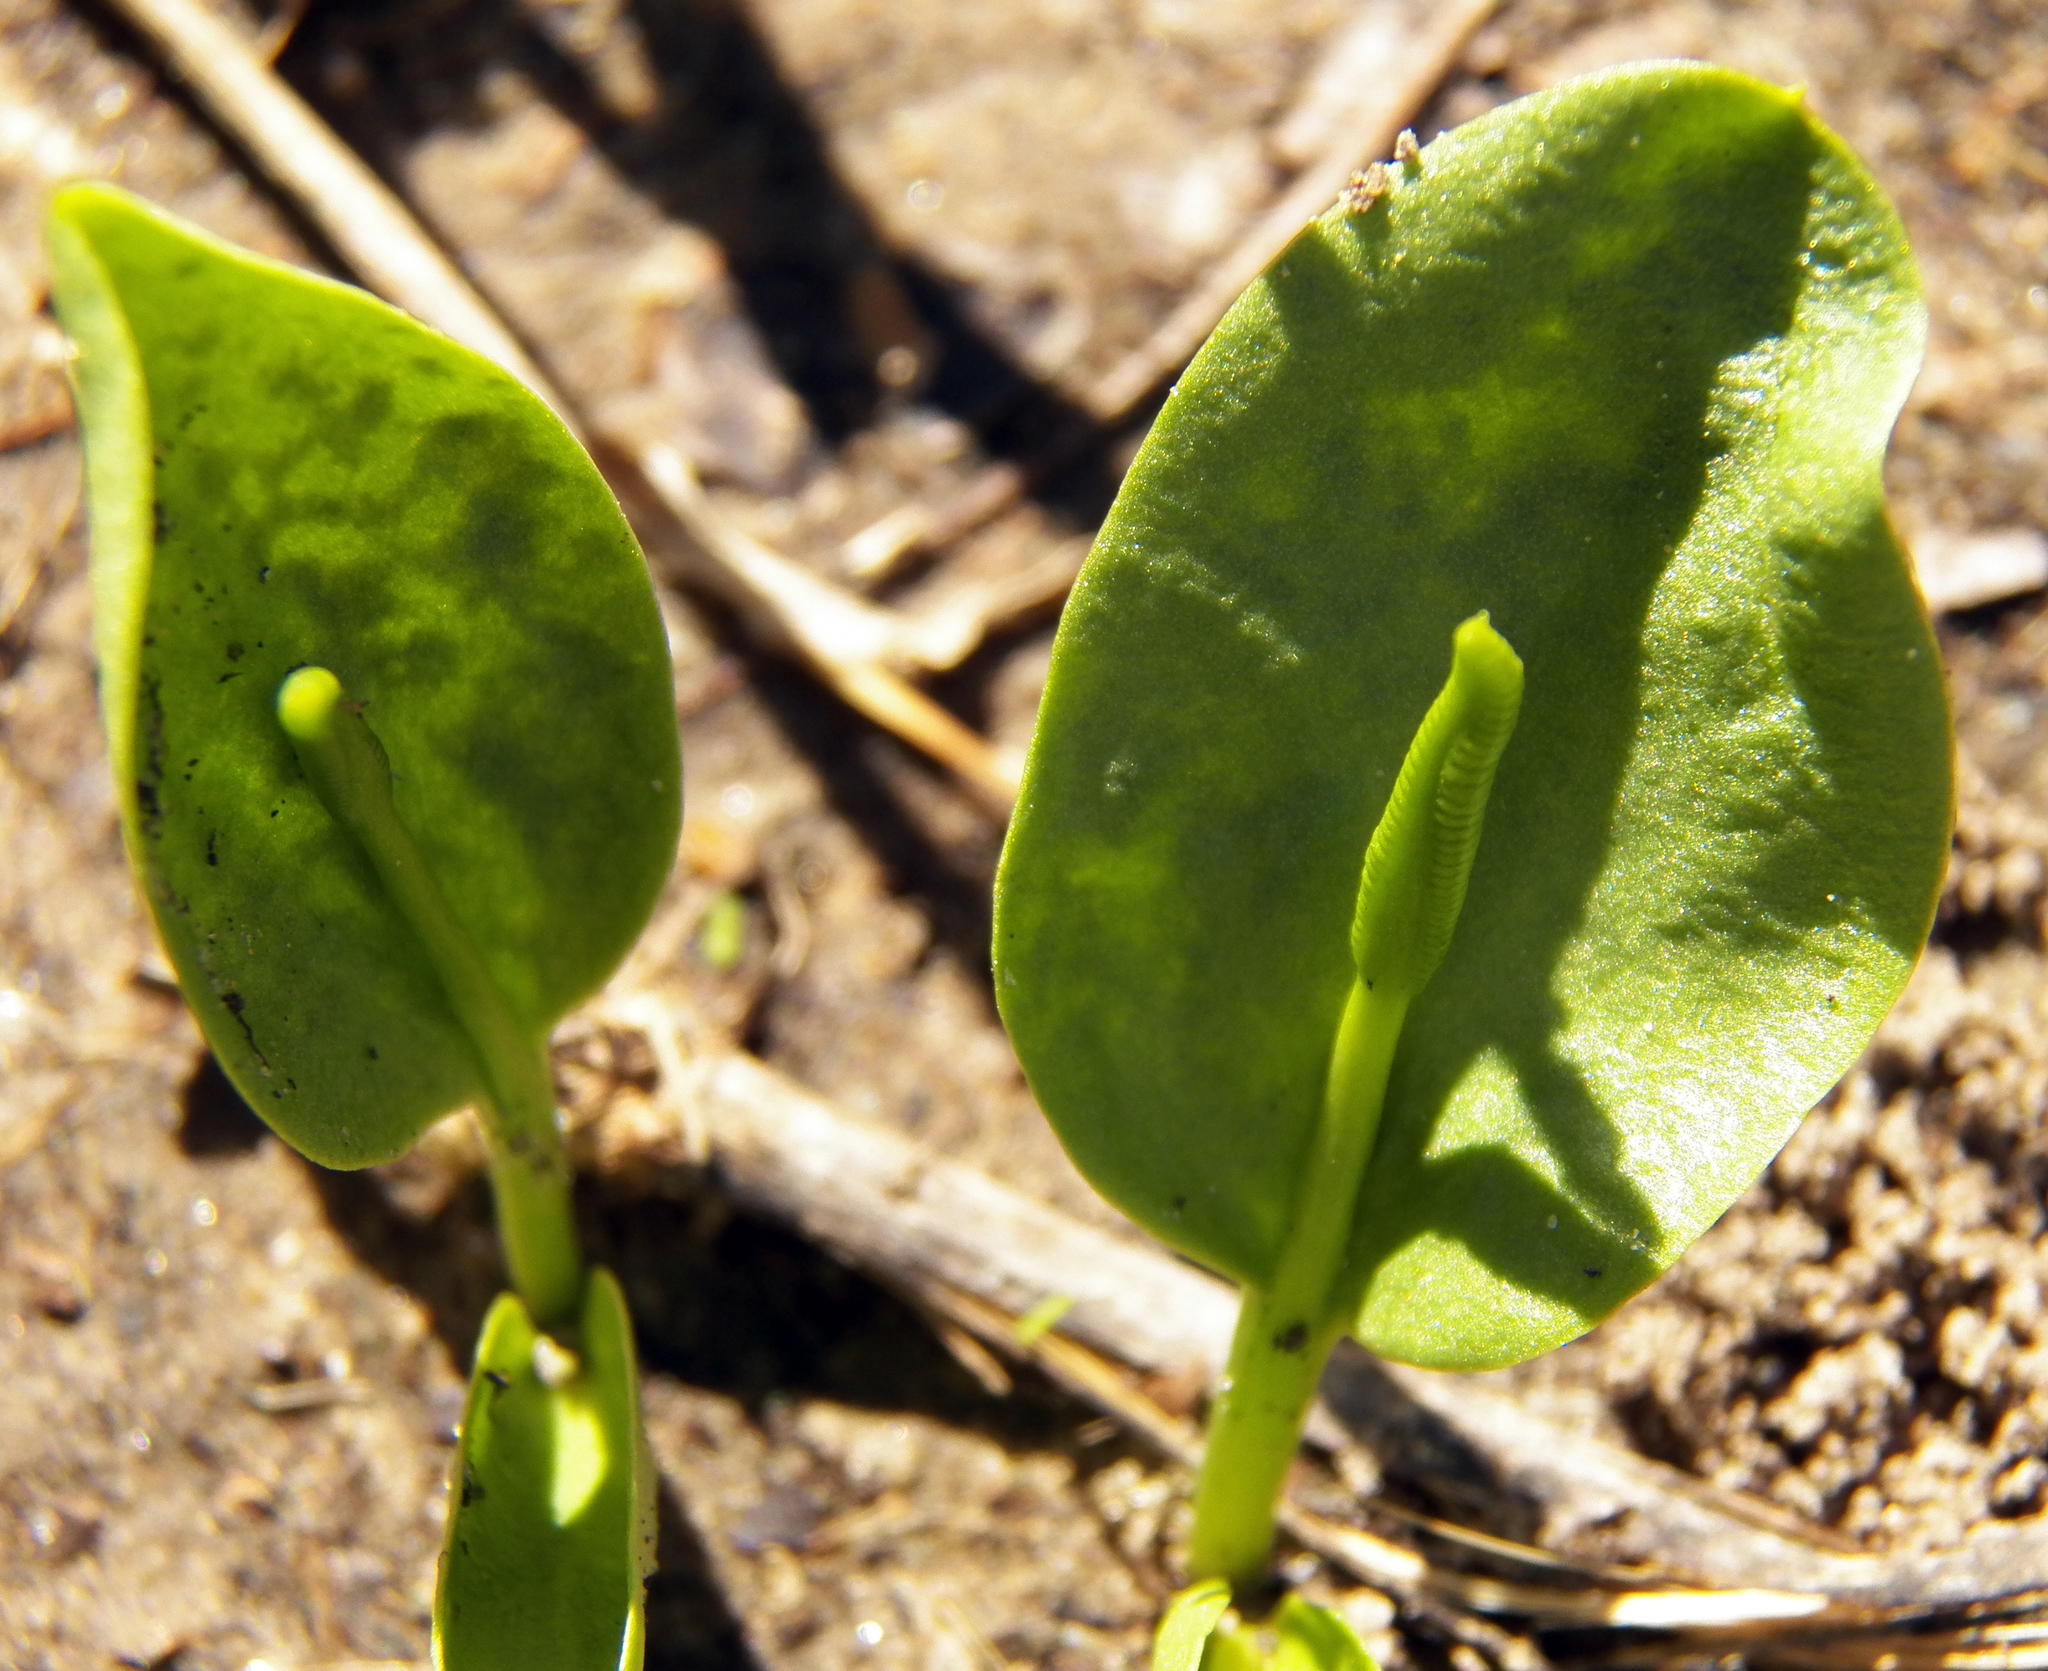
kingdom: Plantae
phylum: Tracheophyta
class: Polypodiopsida
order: Ophioglossales
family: Ophioglossaceae
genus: Ophioglossum
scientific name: Ophioglossum engelmannii
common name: Limestone adder's-tongue
